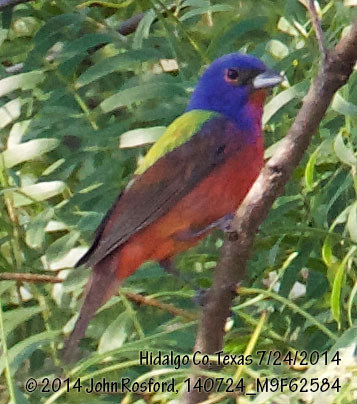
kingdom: Animalia
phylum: Chordata
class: Aves
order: Passeriformes
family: Cardinalidae
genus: Passerina
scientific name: Passerina ciris
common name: Painted bunting
